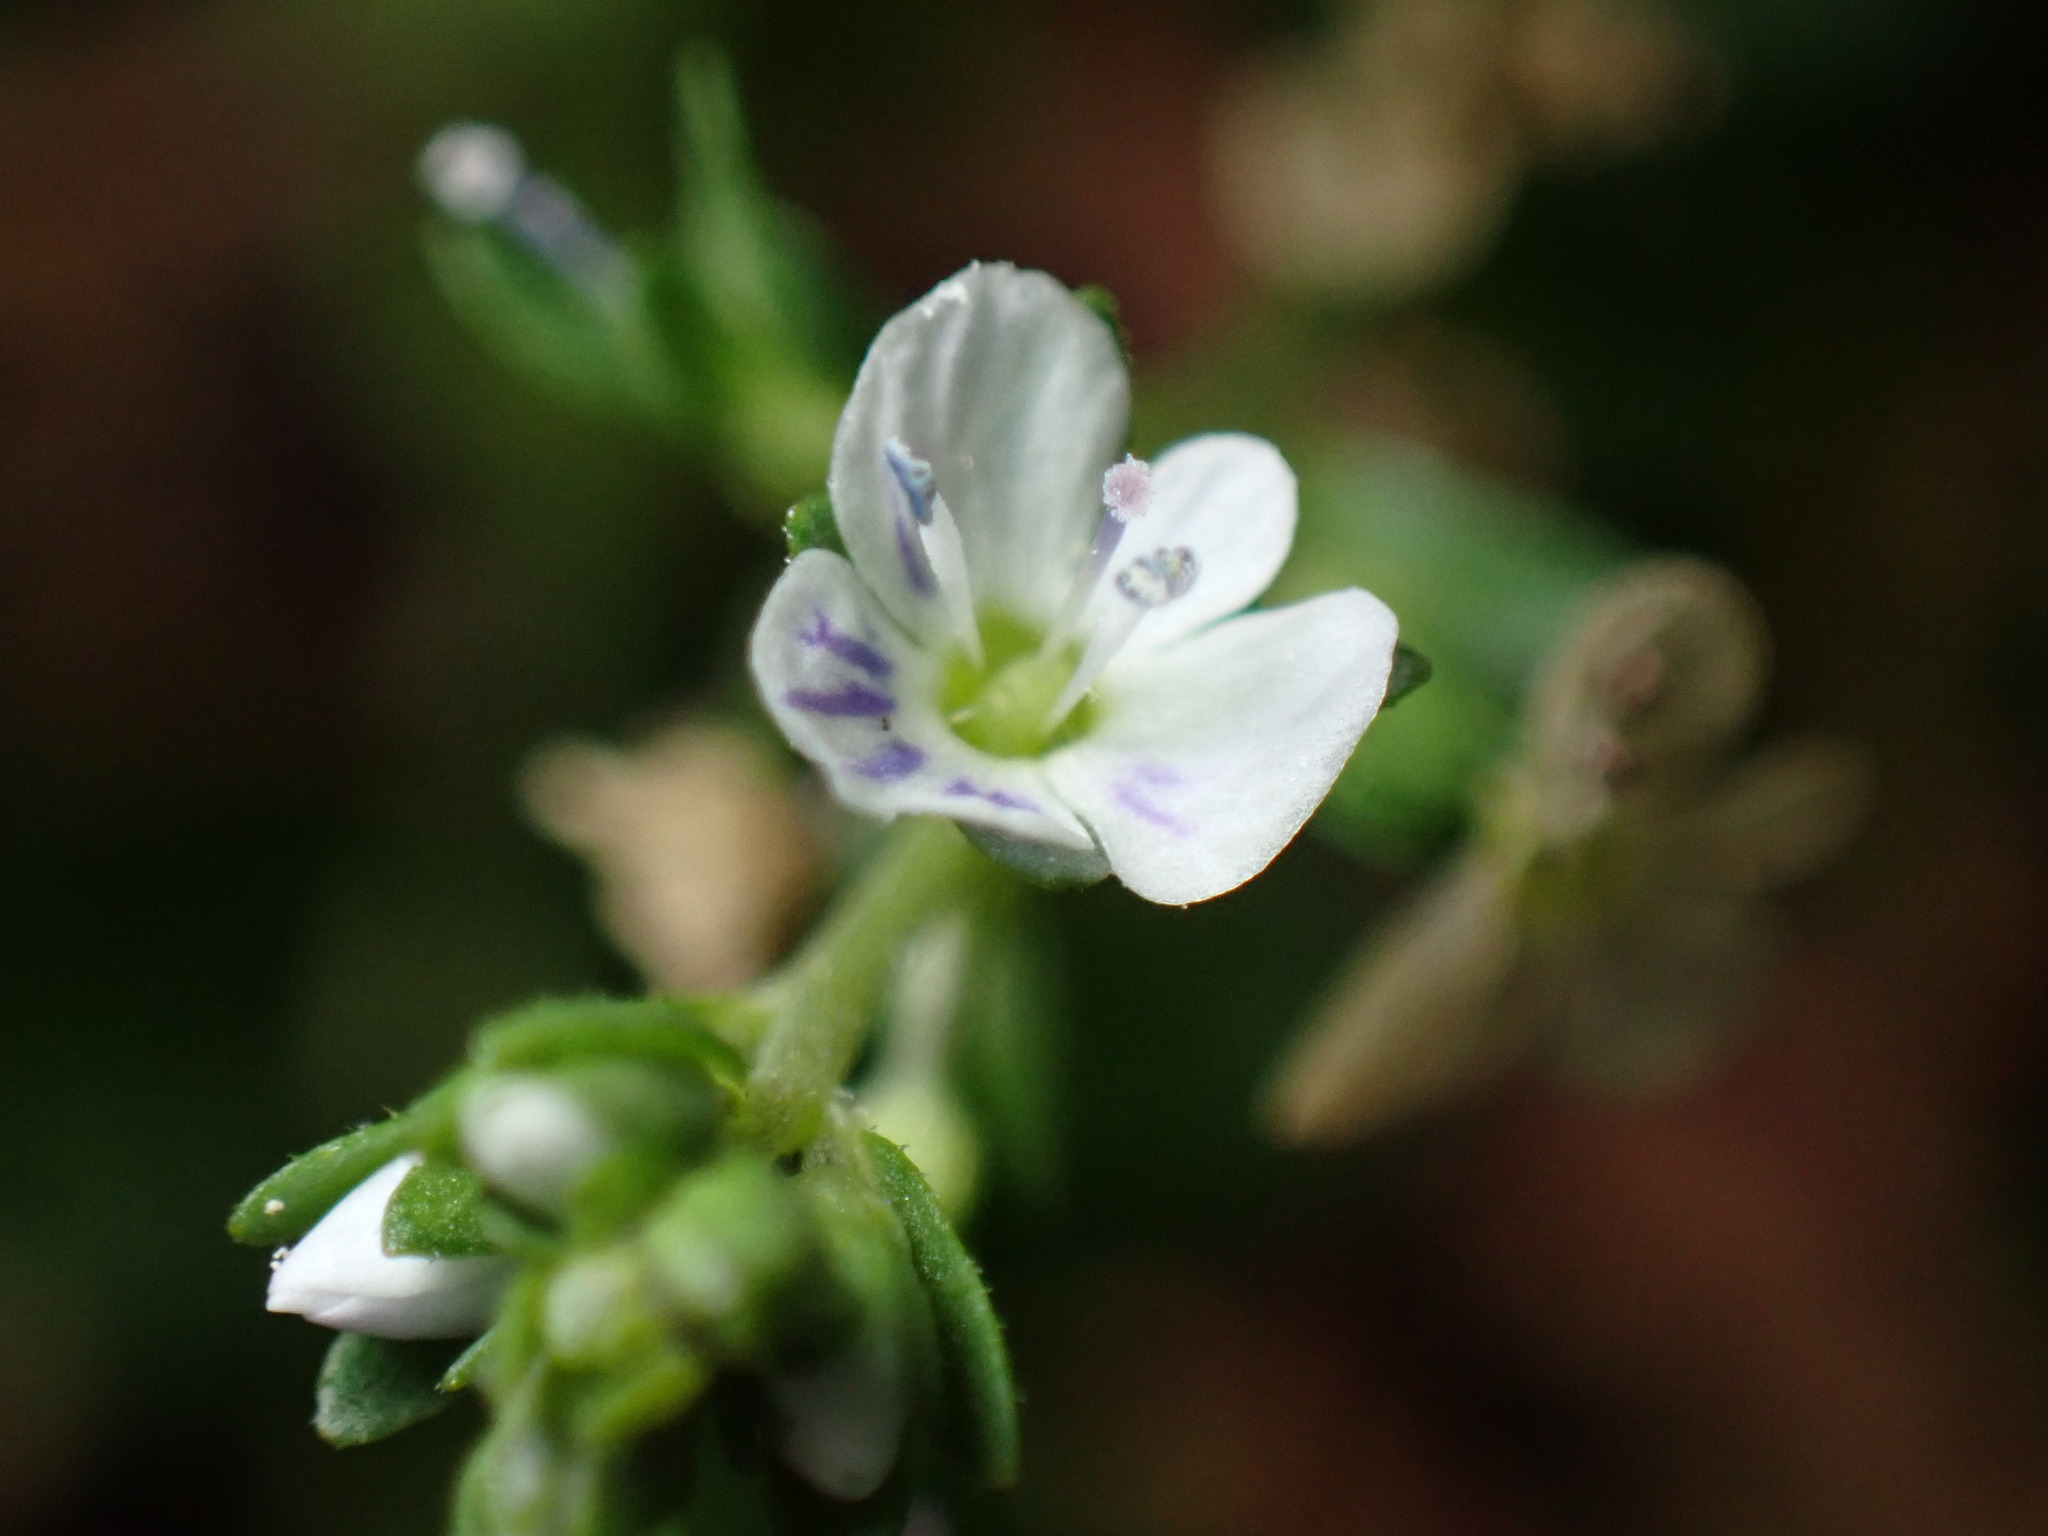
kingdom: Plantae
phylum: Tracheophyta
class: Magnoliopsida
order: Lamiales
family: Plantaginaceae
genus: Veronica
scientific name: Veronica serpyllifolia
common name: Thyme-leaved speedwell
